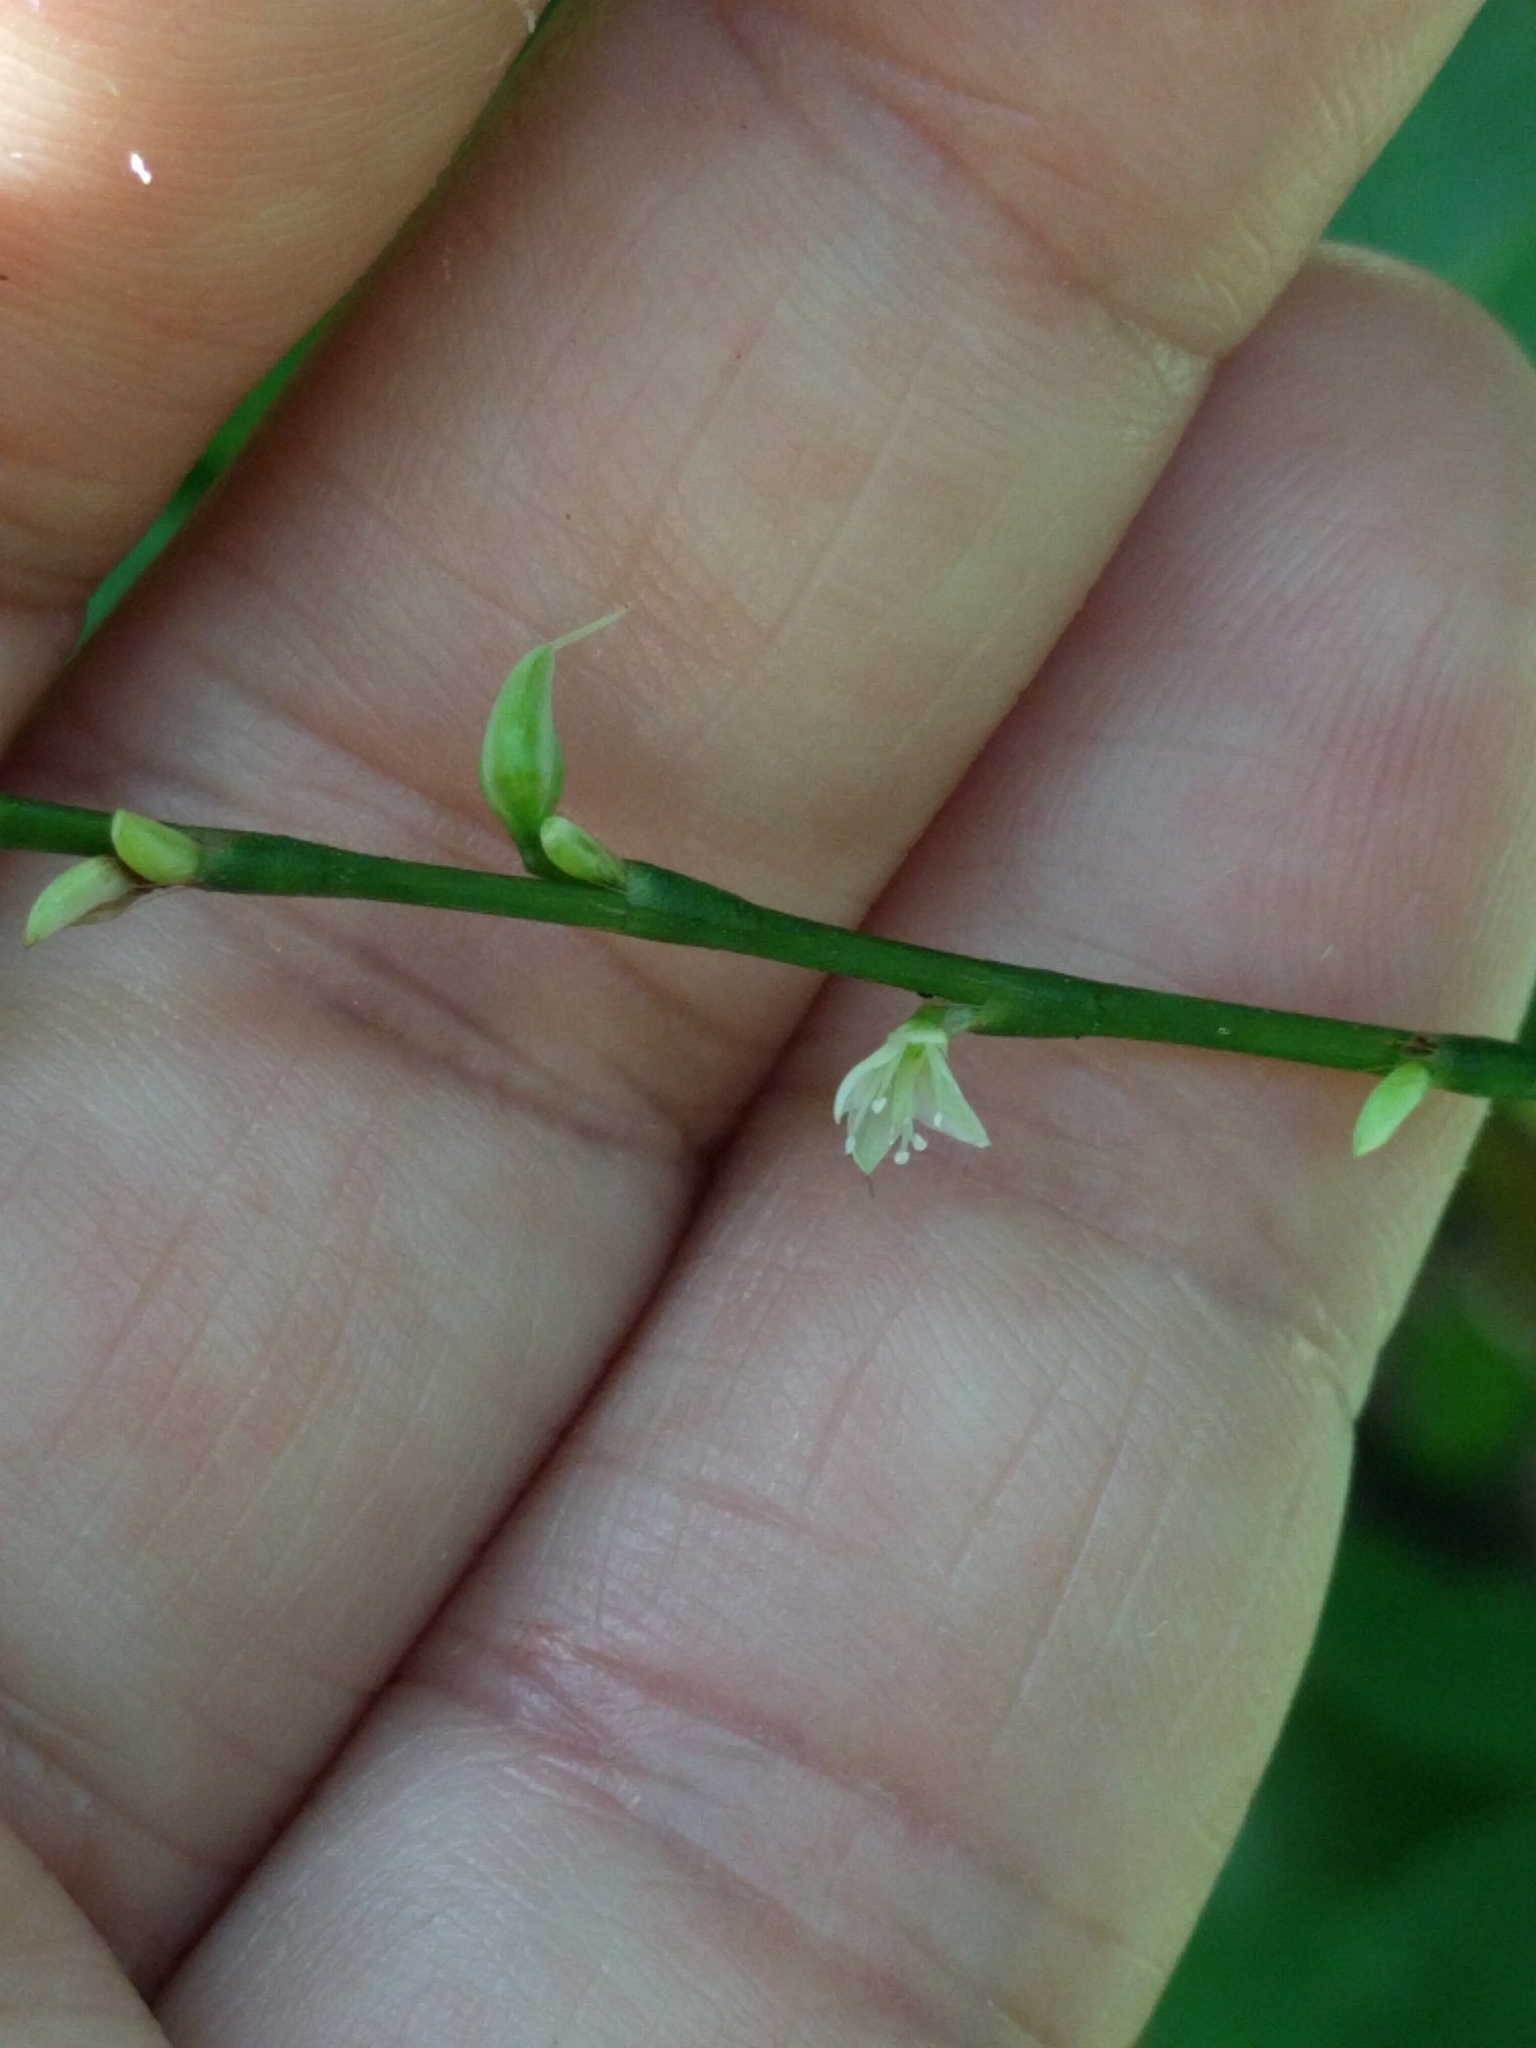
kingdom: Plantae
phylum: Tracheophyta
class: Magnoliopsida
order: Caryophyllales
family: Polygonaceae
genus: Persicaria
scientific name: Persicaria virginiana
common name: Jumpseed
